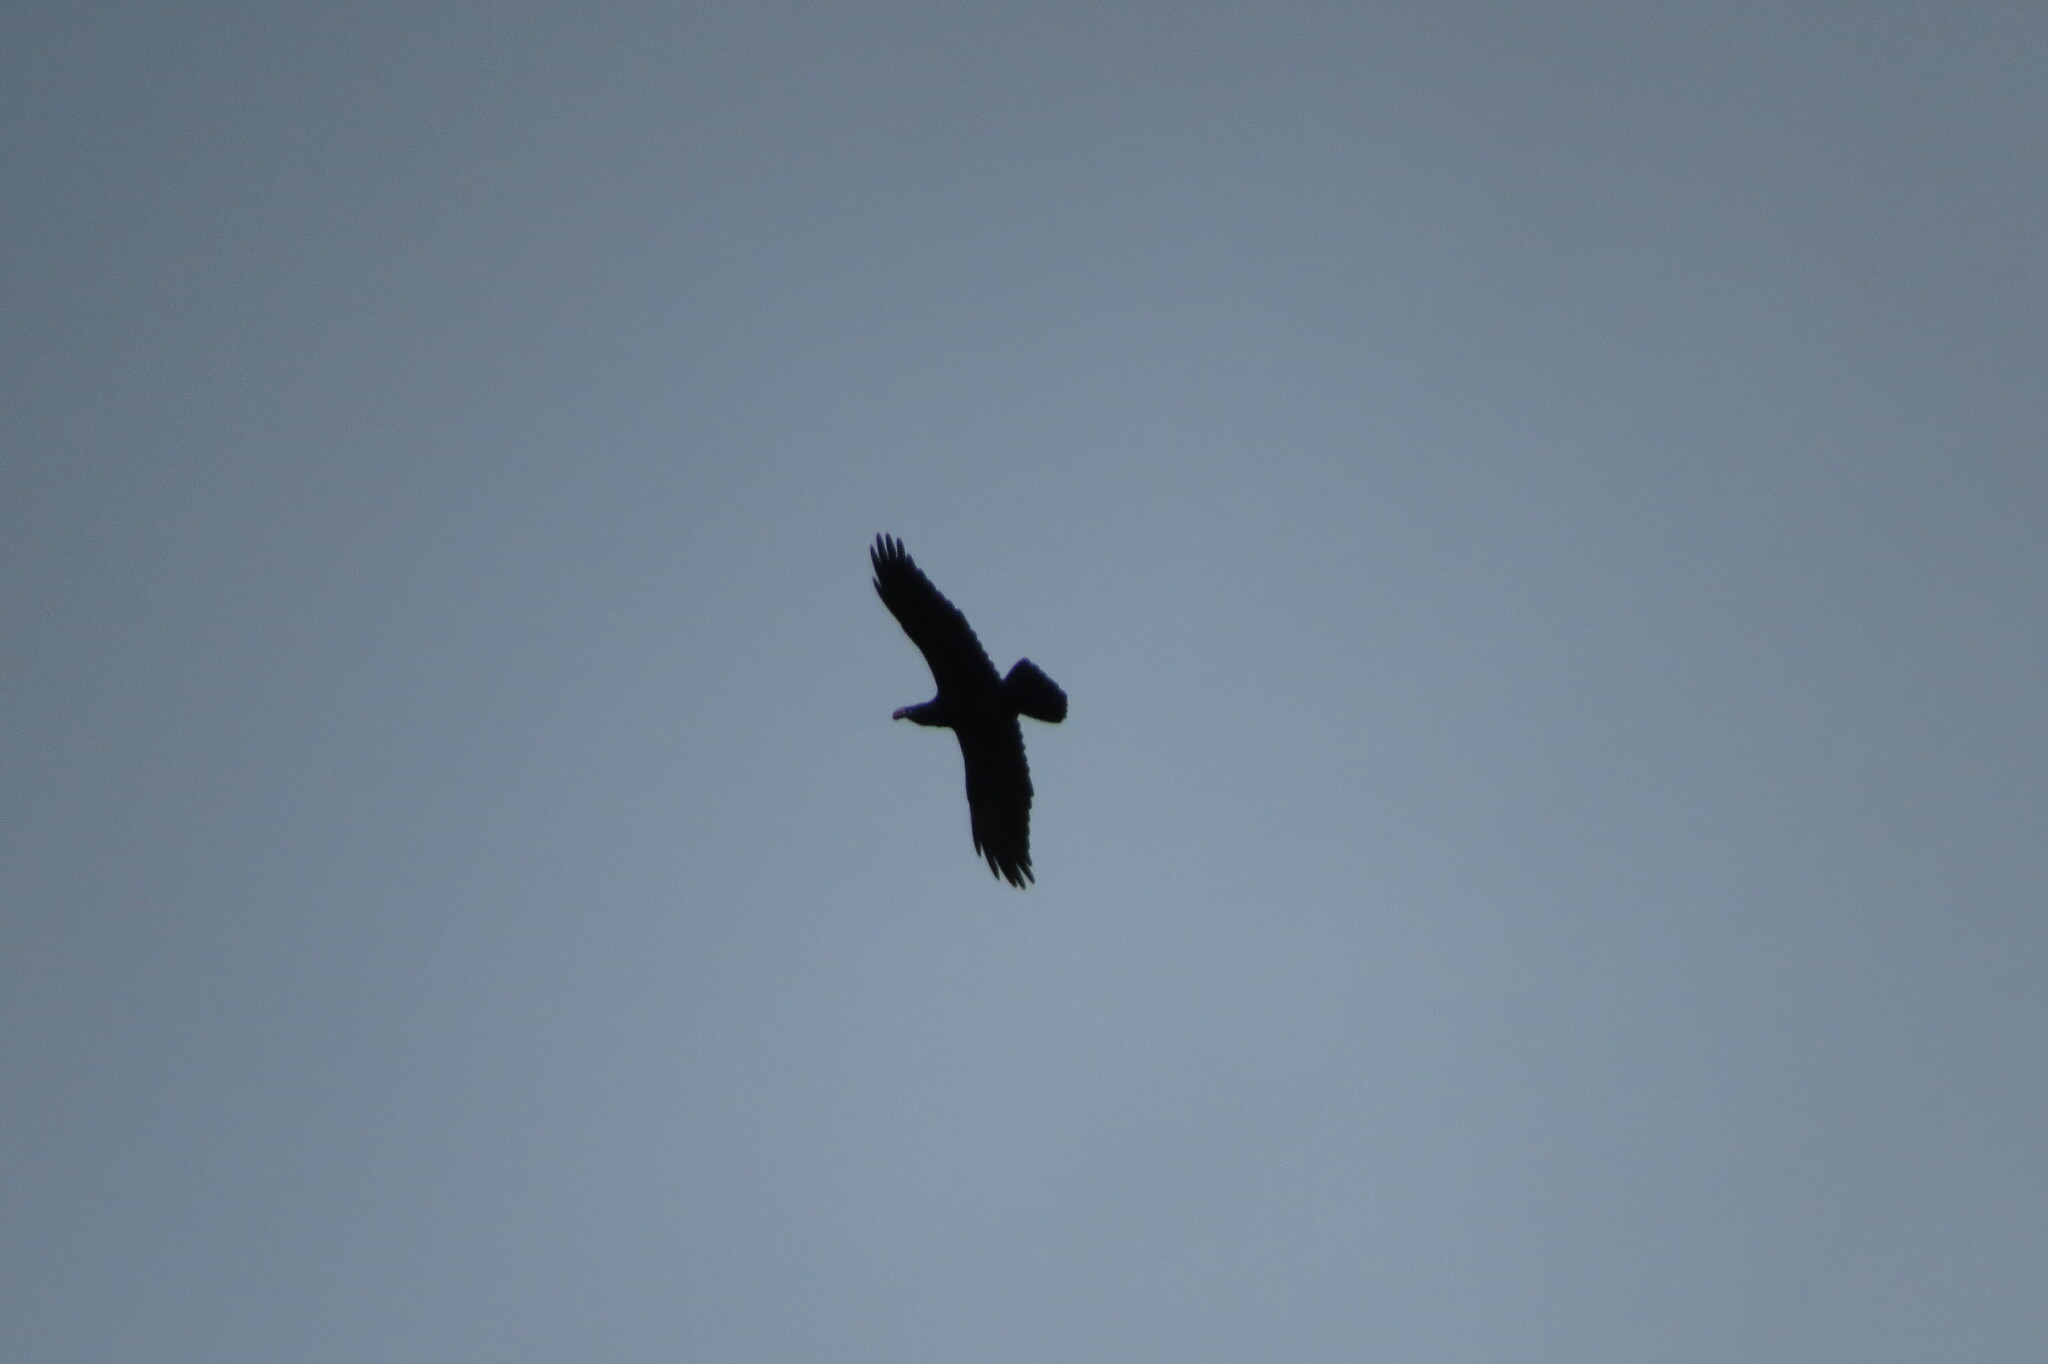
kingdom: Animalia
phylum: Chordata
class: Aves
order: Passeriformes
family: Corvidae
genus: Corvus
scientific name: Corvus corax
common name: Common raven
